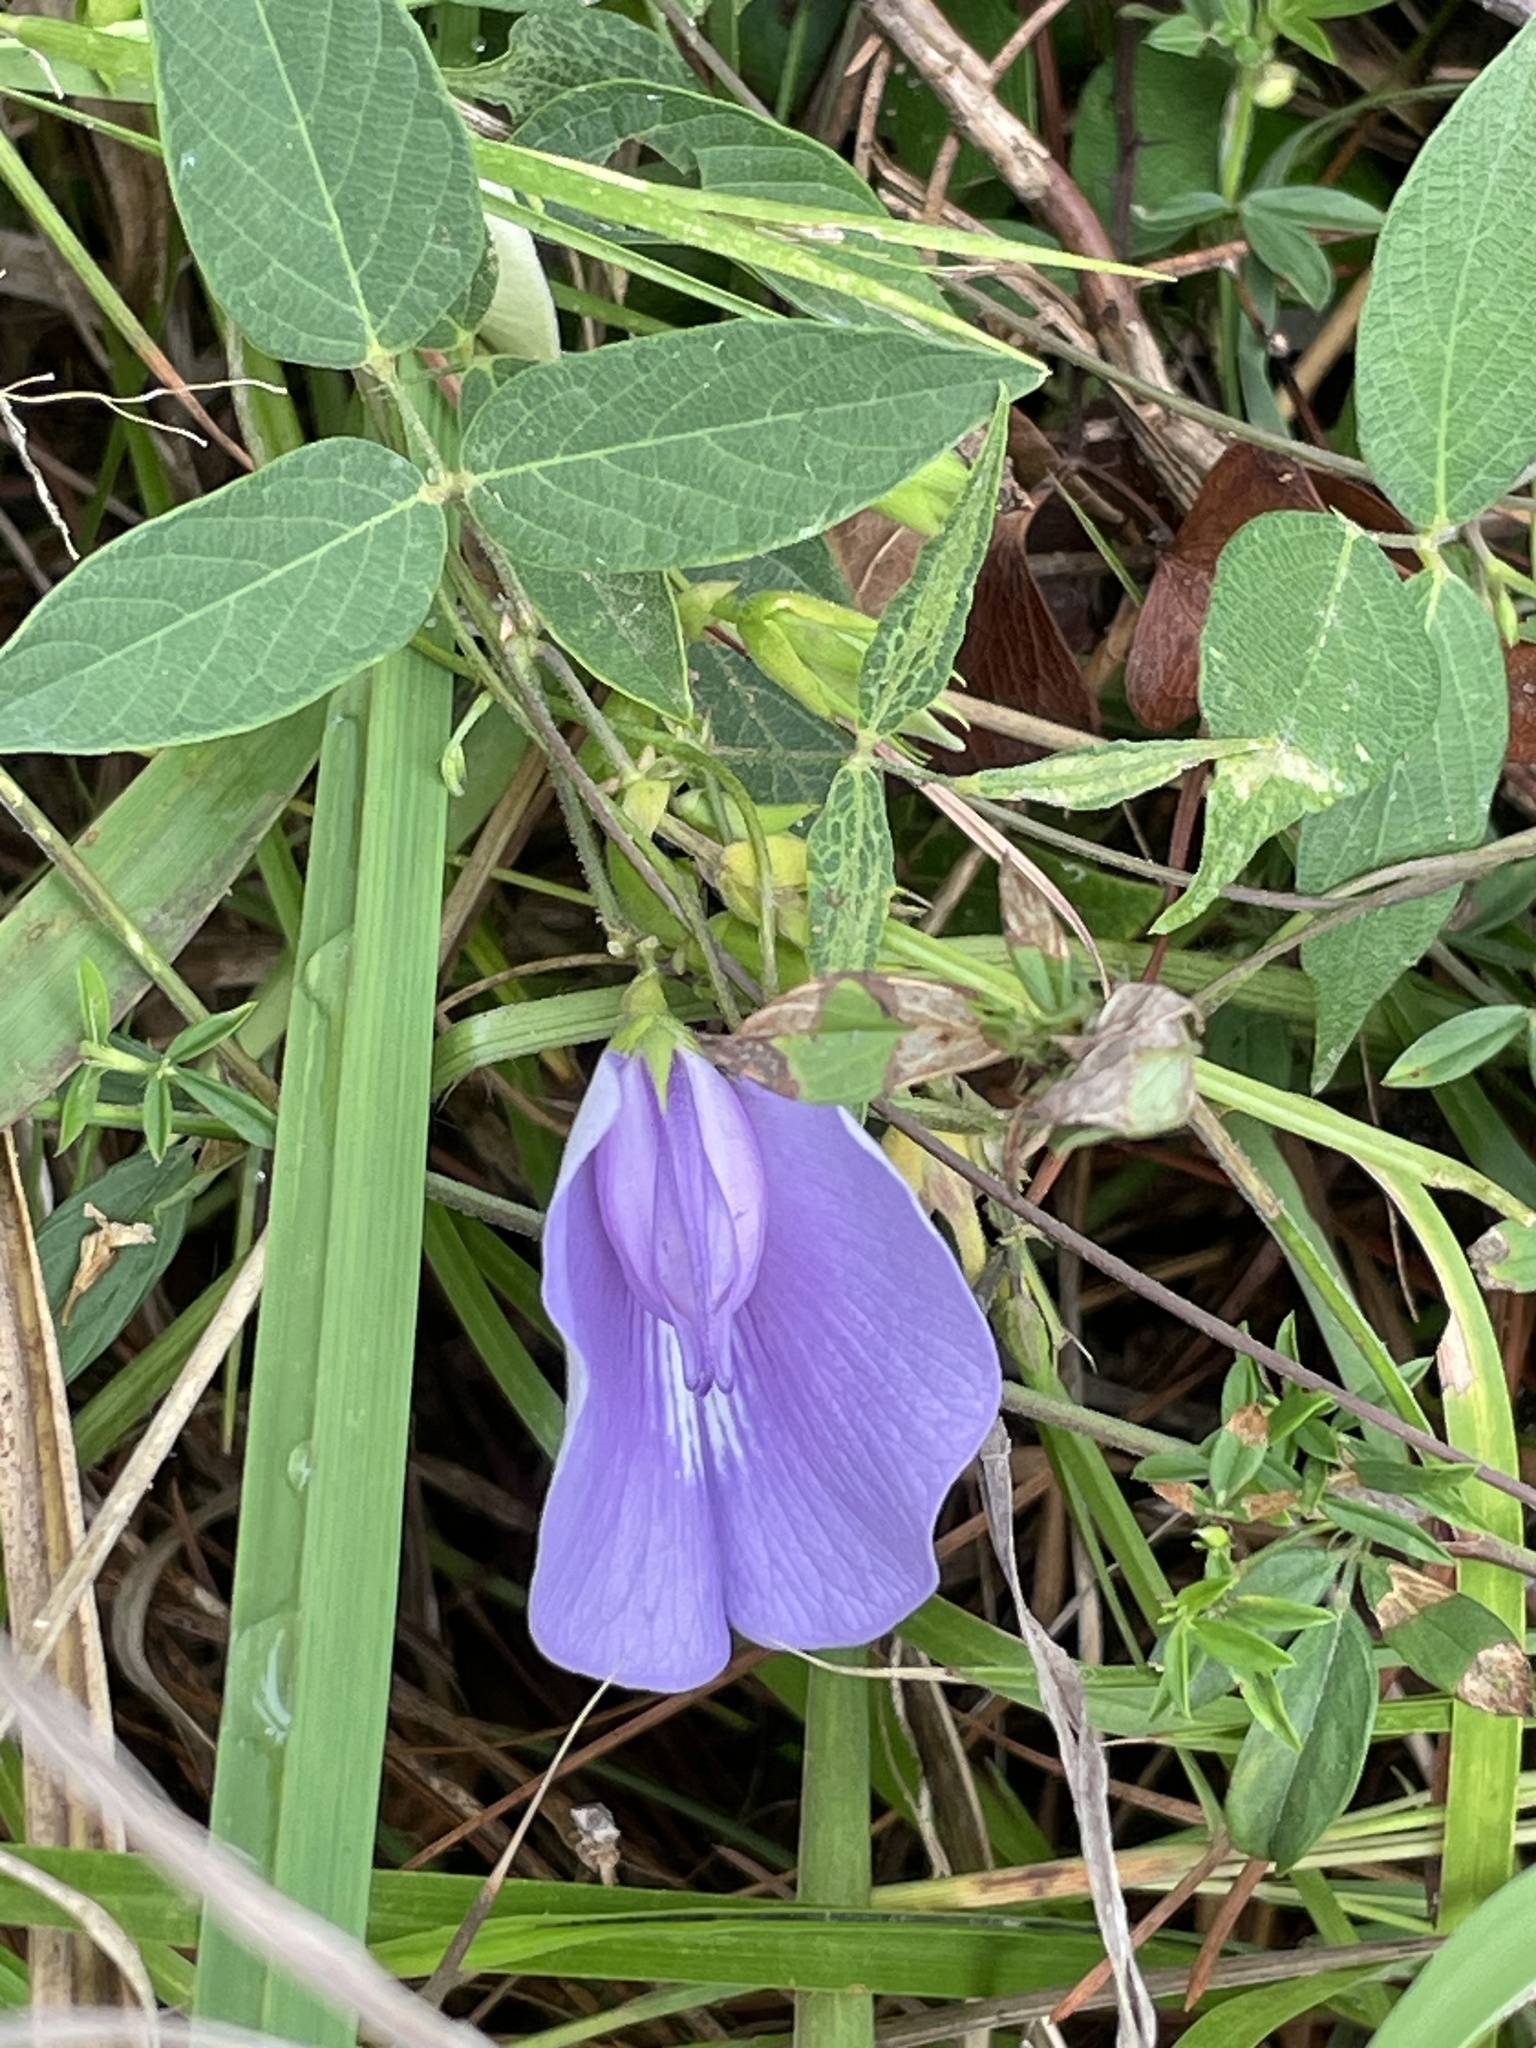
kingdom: Plantae
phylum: Tracheophyta
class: Magnoliopsida
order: Fabales
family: Fabaceae
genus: Centrosema
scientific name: Centrosema virginianum
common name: Butterfly-pea
